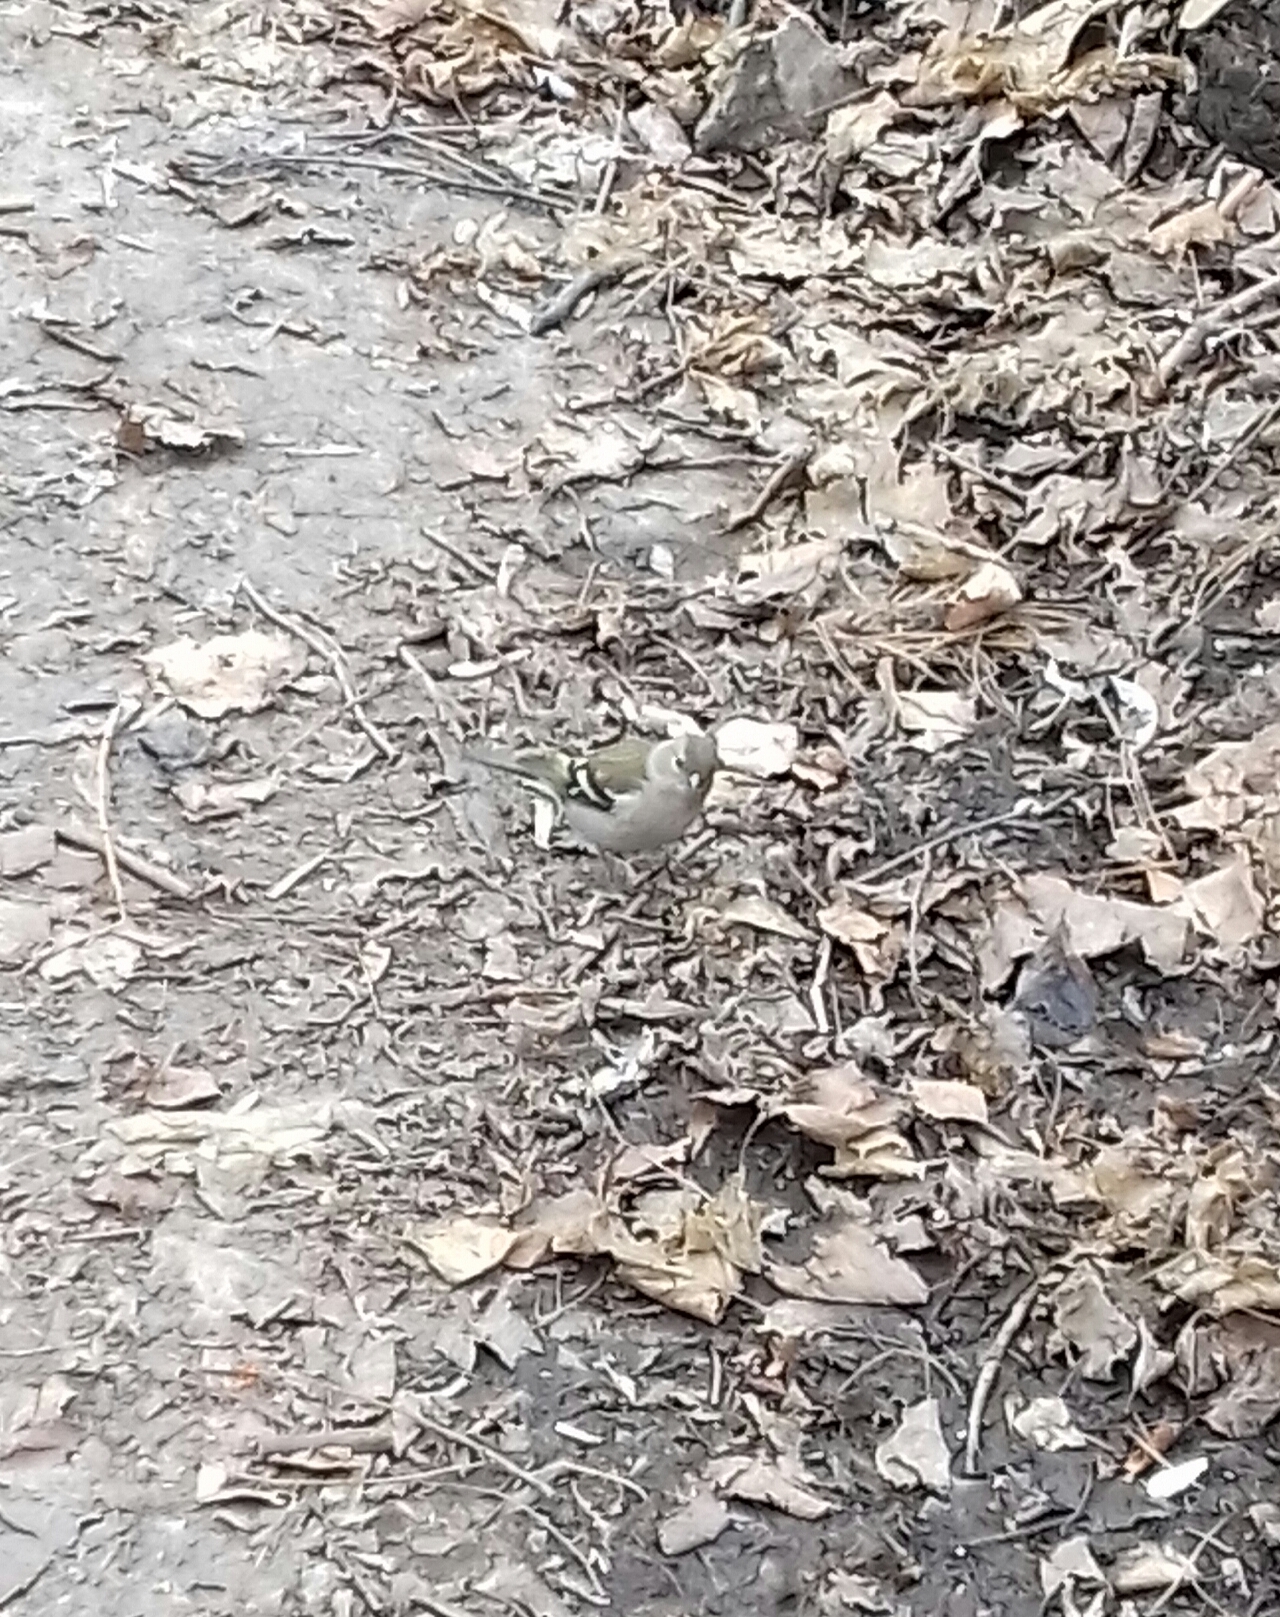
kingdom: Animalia
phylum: Chordata
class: Aves
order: Passeriformes
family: Fringillidae
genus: Fringilla
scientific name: Fringilla coelebs
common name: Common chaffinch
